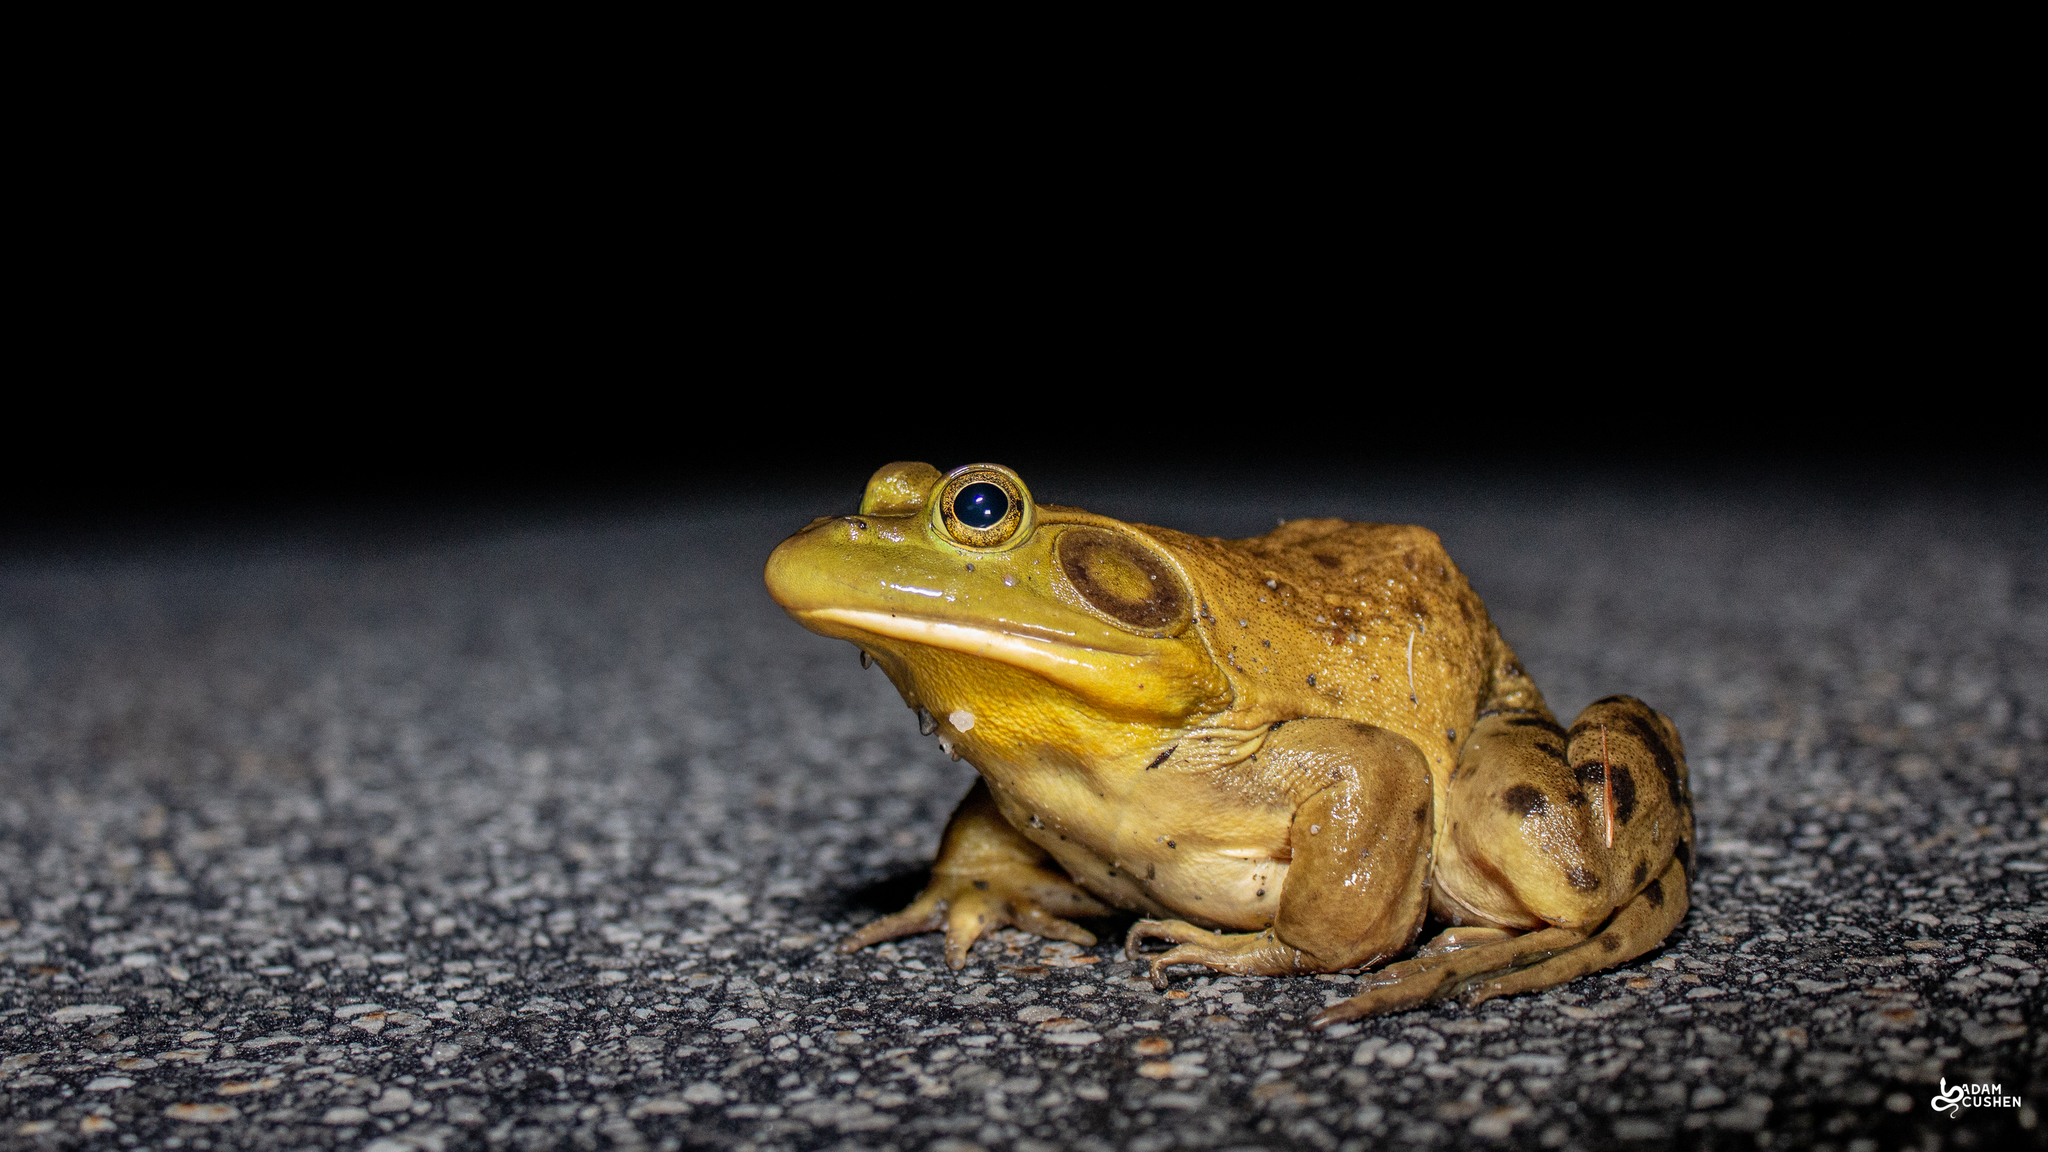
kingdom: Animalia
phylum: Chordata
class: Amphibia
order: Anura
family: Ranidae
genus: Lithobates
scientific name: Lithobates catesbeianus
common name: American bullfrog
